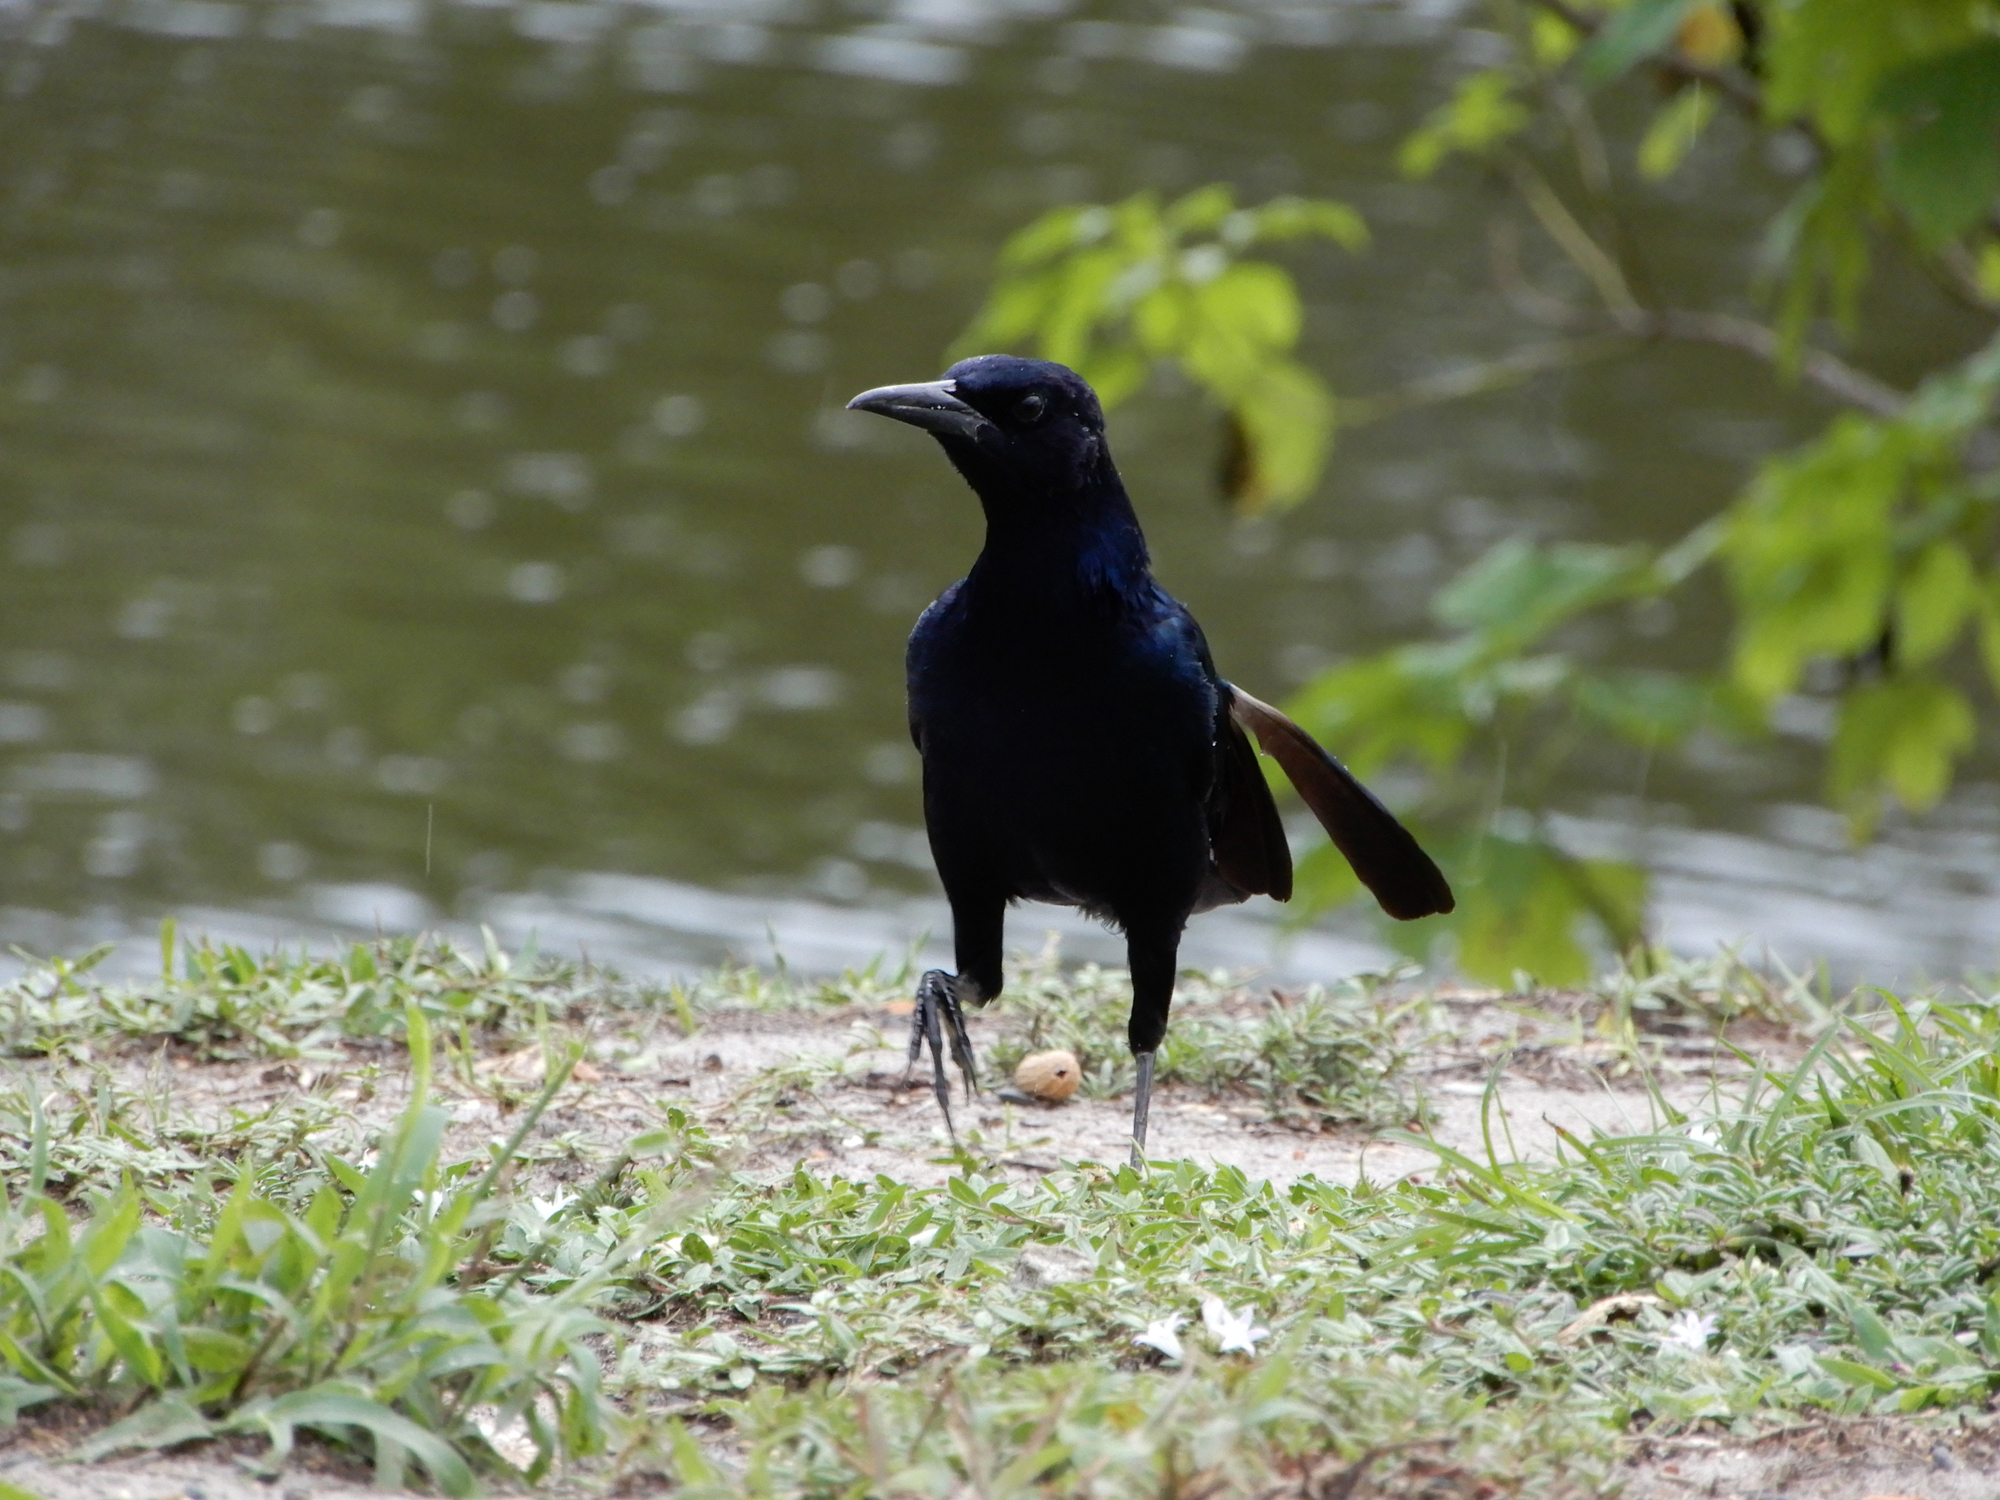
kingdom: Animalia
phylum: Chordata
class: Aves
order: Passeriformes
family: Icteridae
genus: Quiscalus
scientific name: Quiscalus major
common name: Boat-tailed grackle
